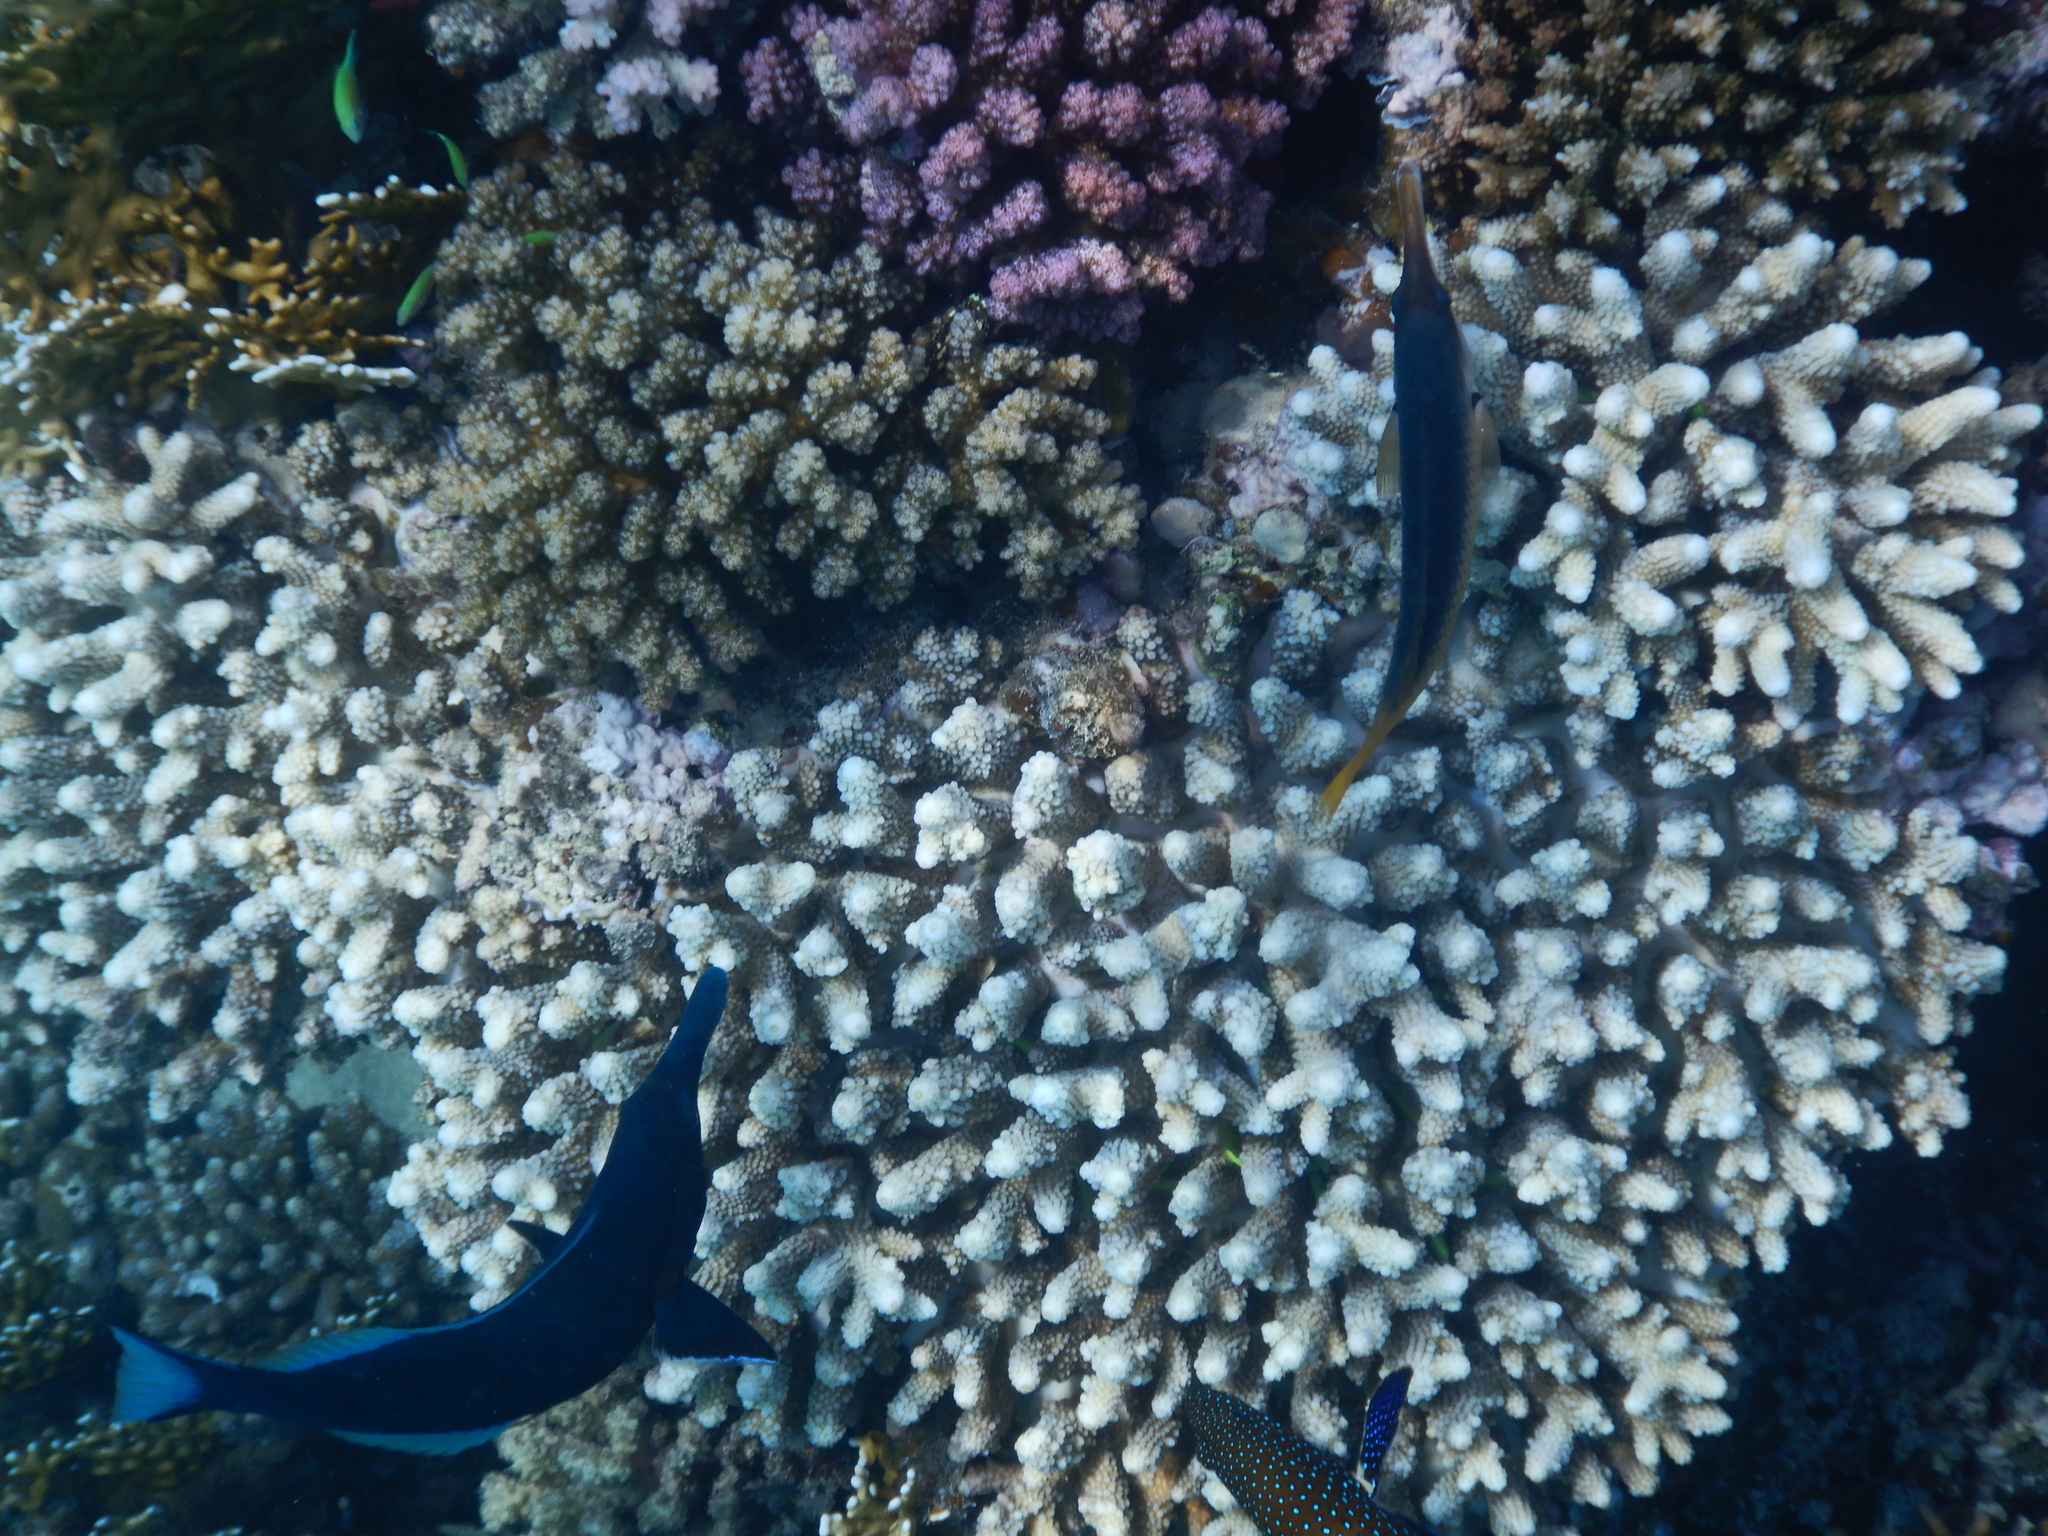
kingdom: Animalia
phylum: Chordata
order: Perciformes
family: Labridae
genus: Gomphosus
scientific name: Gomphosus klunzingeri
